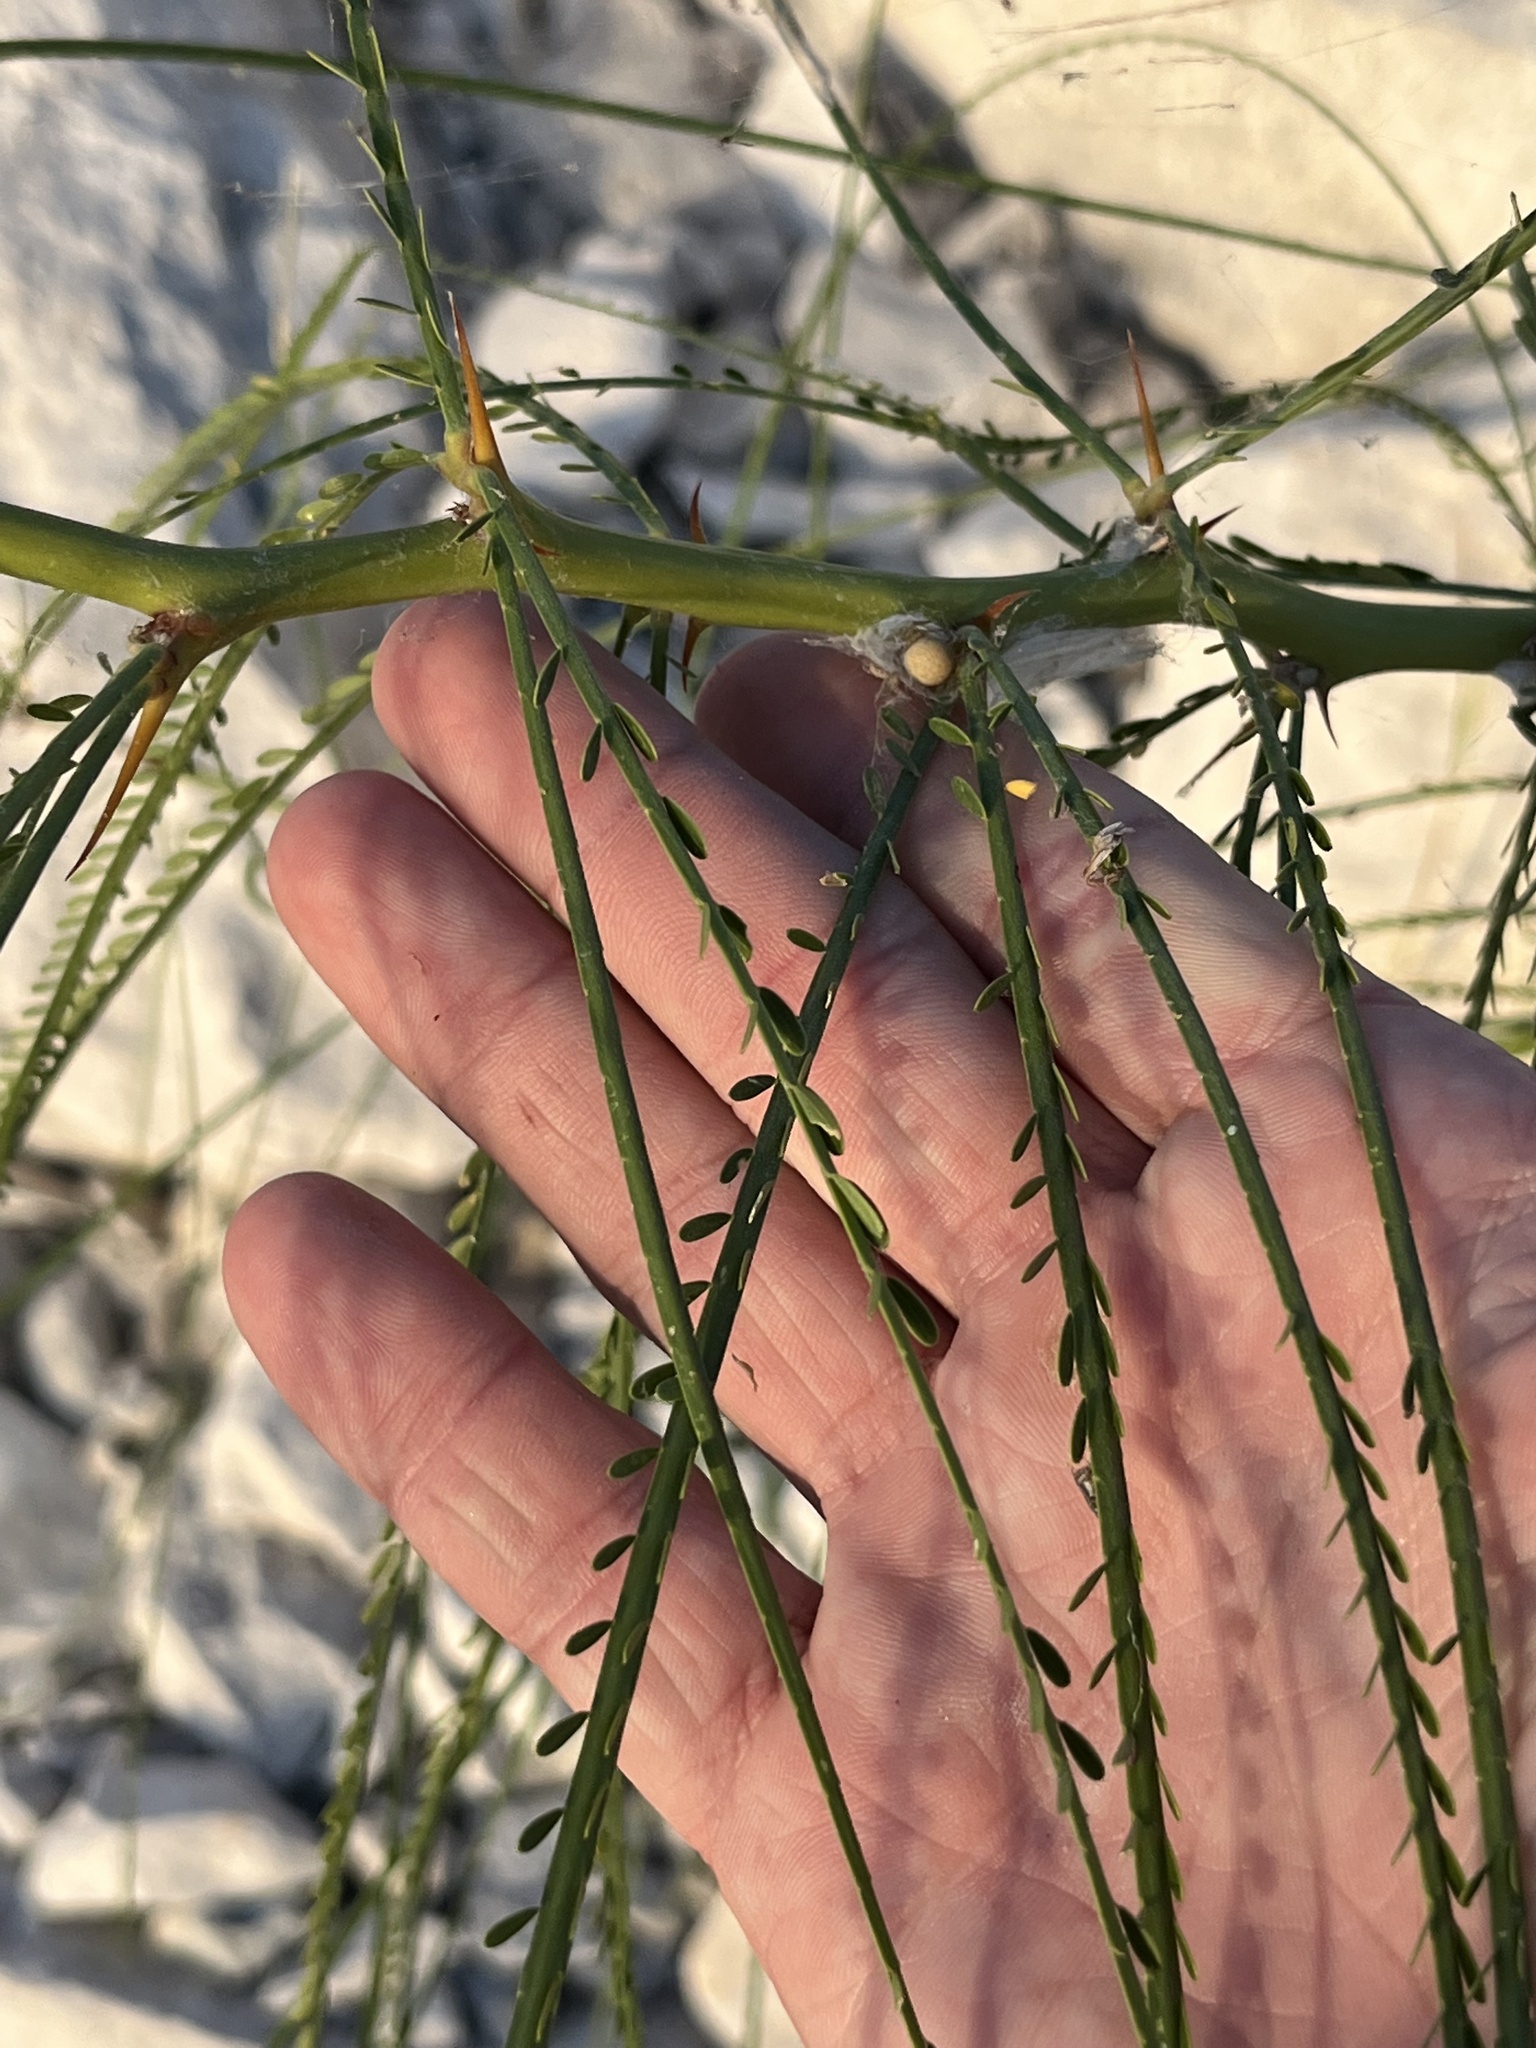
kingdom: Plantae
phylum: Tracheophyta
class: Magnoliopsida
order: Fabales
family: Fabaceae
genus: Parkinsonia
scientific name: Parkinsonia aculeata
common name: Jerusalem thorn
